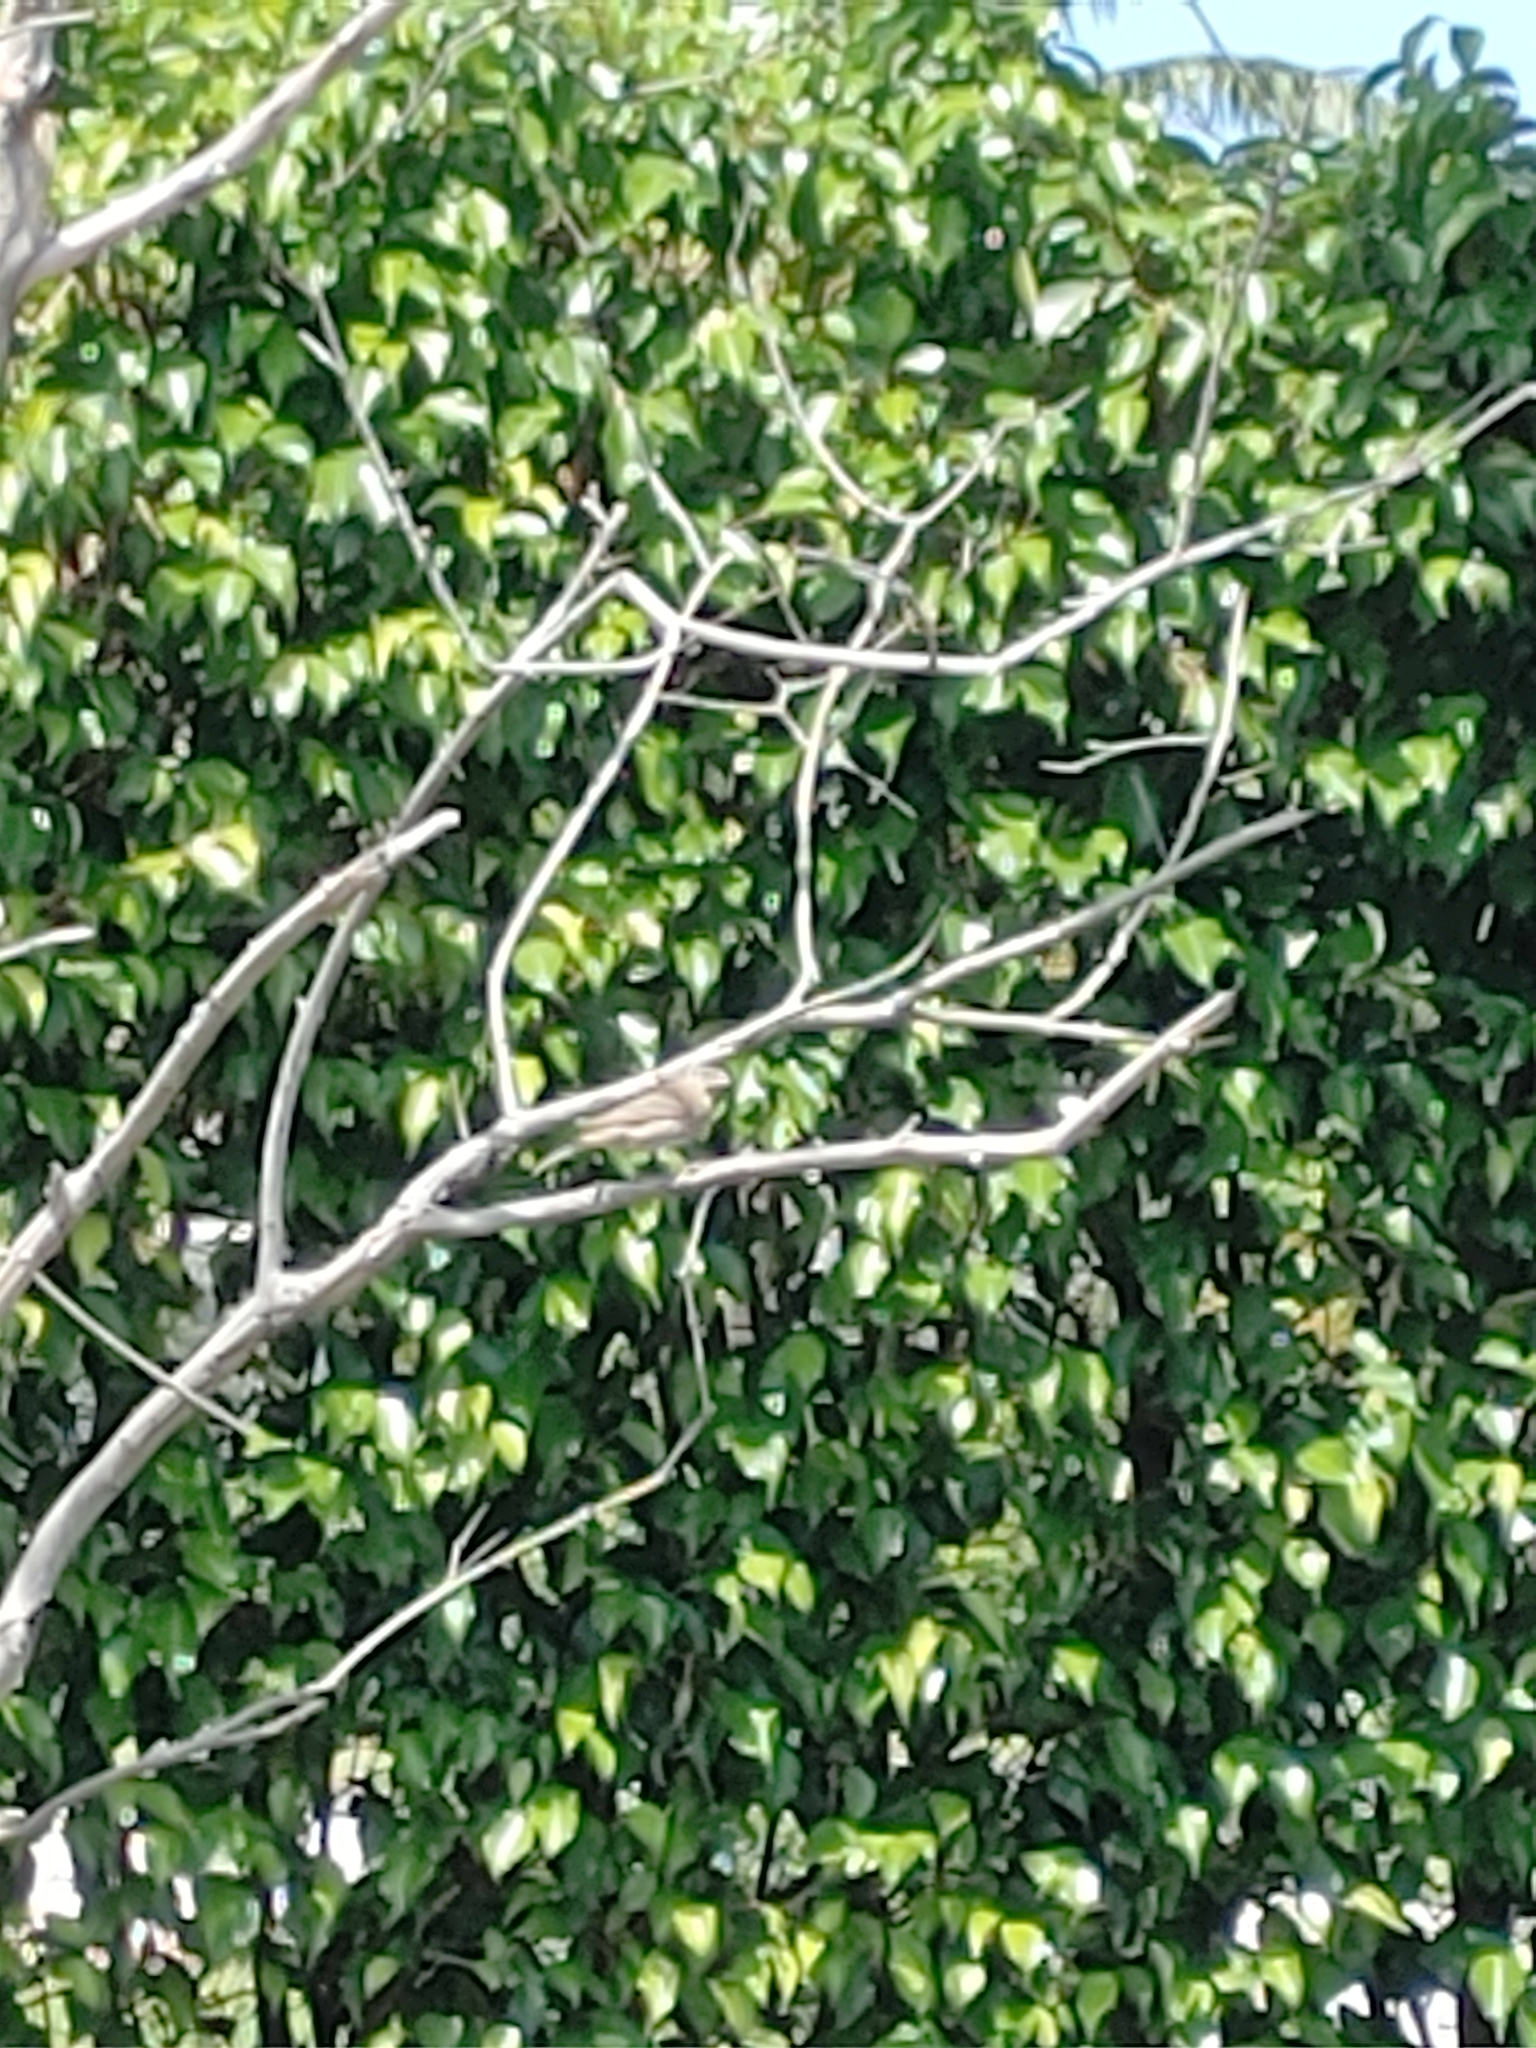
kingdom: Animalia
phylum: Chordata
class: Aves
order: Passeriformes
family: Fringillidae
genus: Haemorhous
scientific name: Haemorhous mexicanus
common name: House finch
